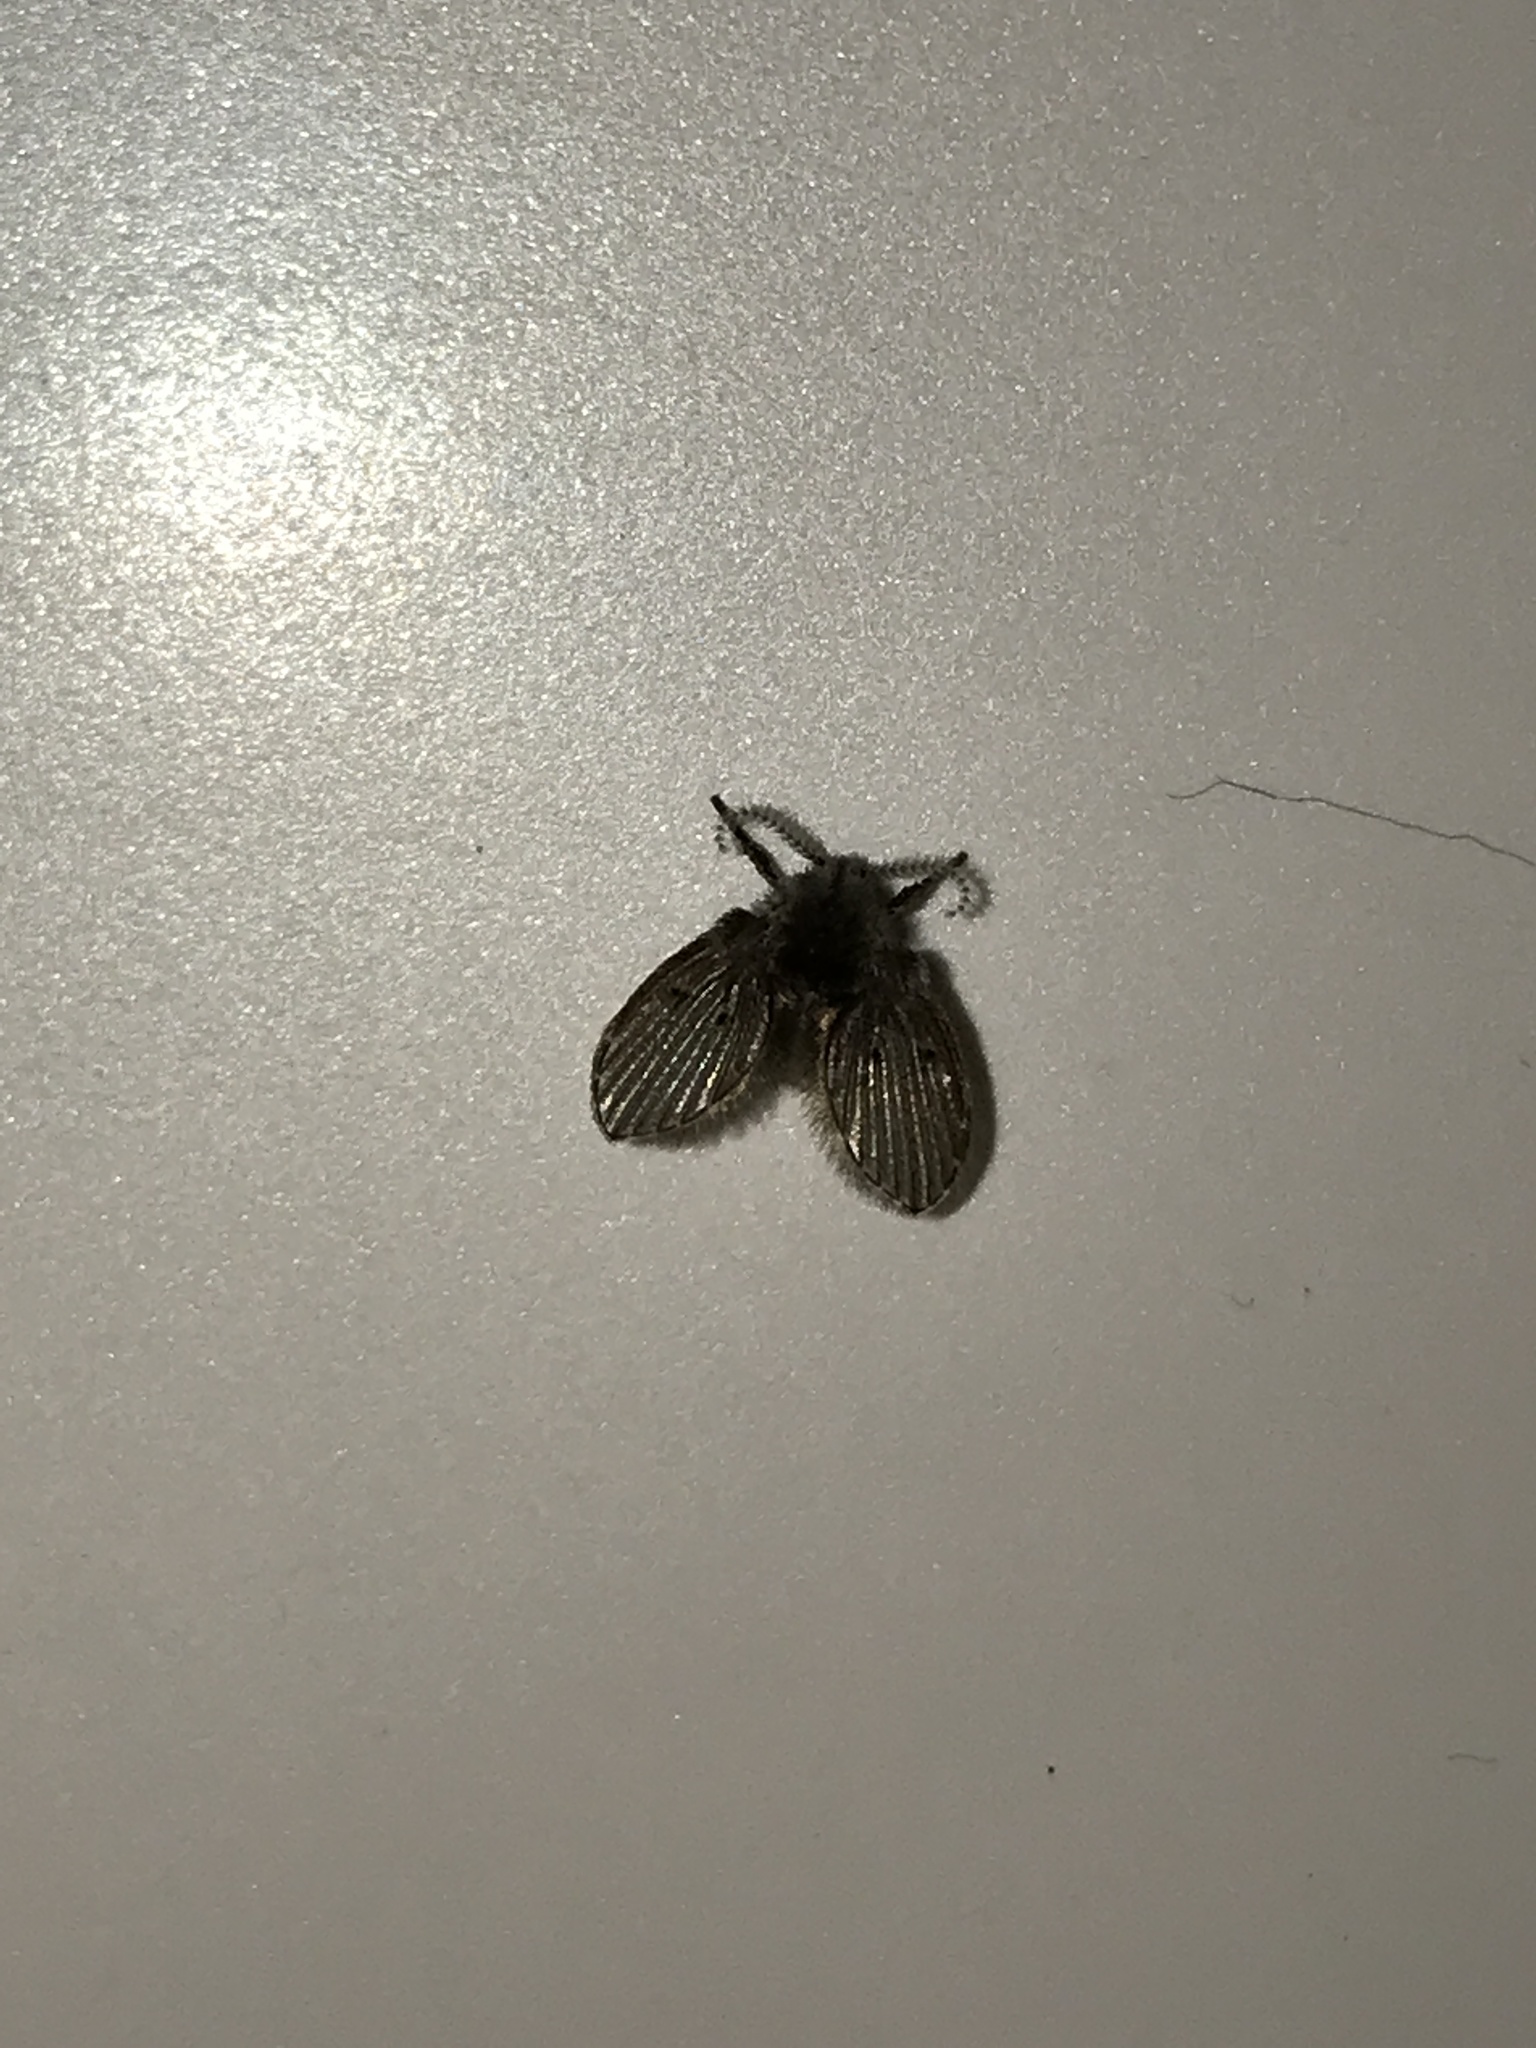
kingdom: Animalia
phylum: Arthropoda
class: Insecta
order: Diptera
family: Psychodidae
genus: Clogmia
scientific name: Clogmia albipunctatus
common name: White-spotted moth fly
